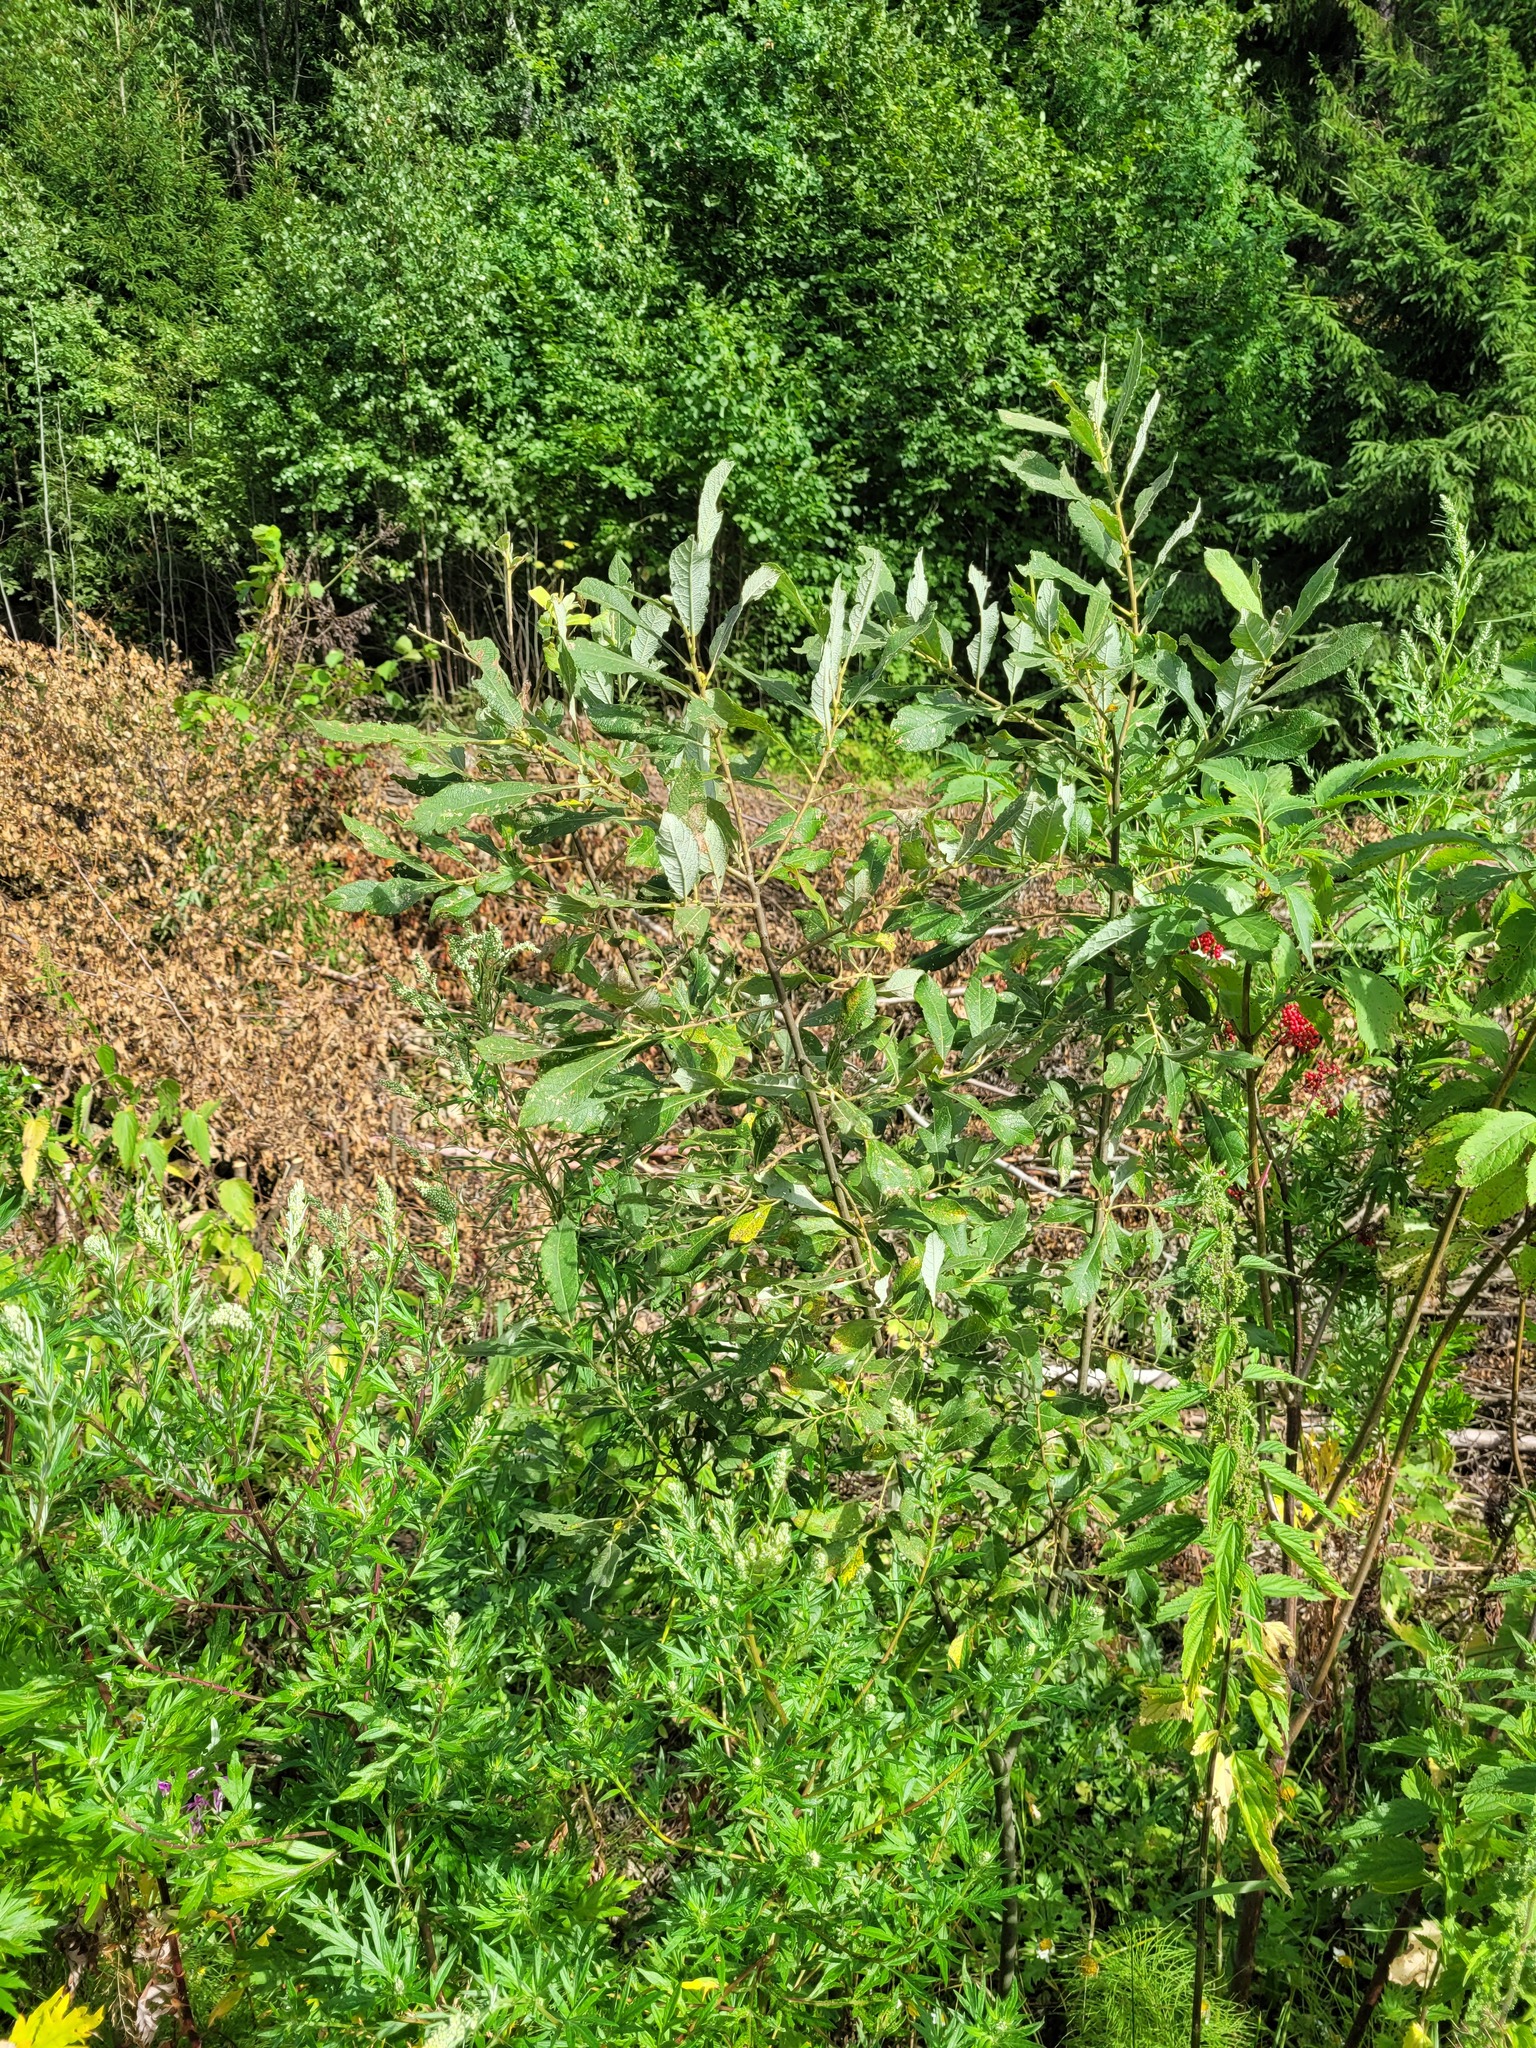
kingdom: Plantae
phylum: Tracheophyta
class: Magnoliopsida
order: Malpighiales
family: Salicaceae
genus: Salix
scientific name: Salix cinerea
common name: Common sallow
